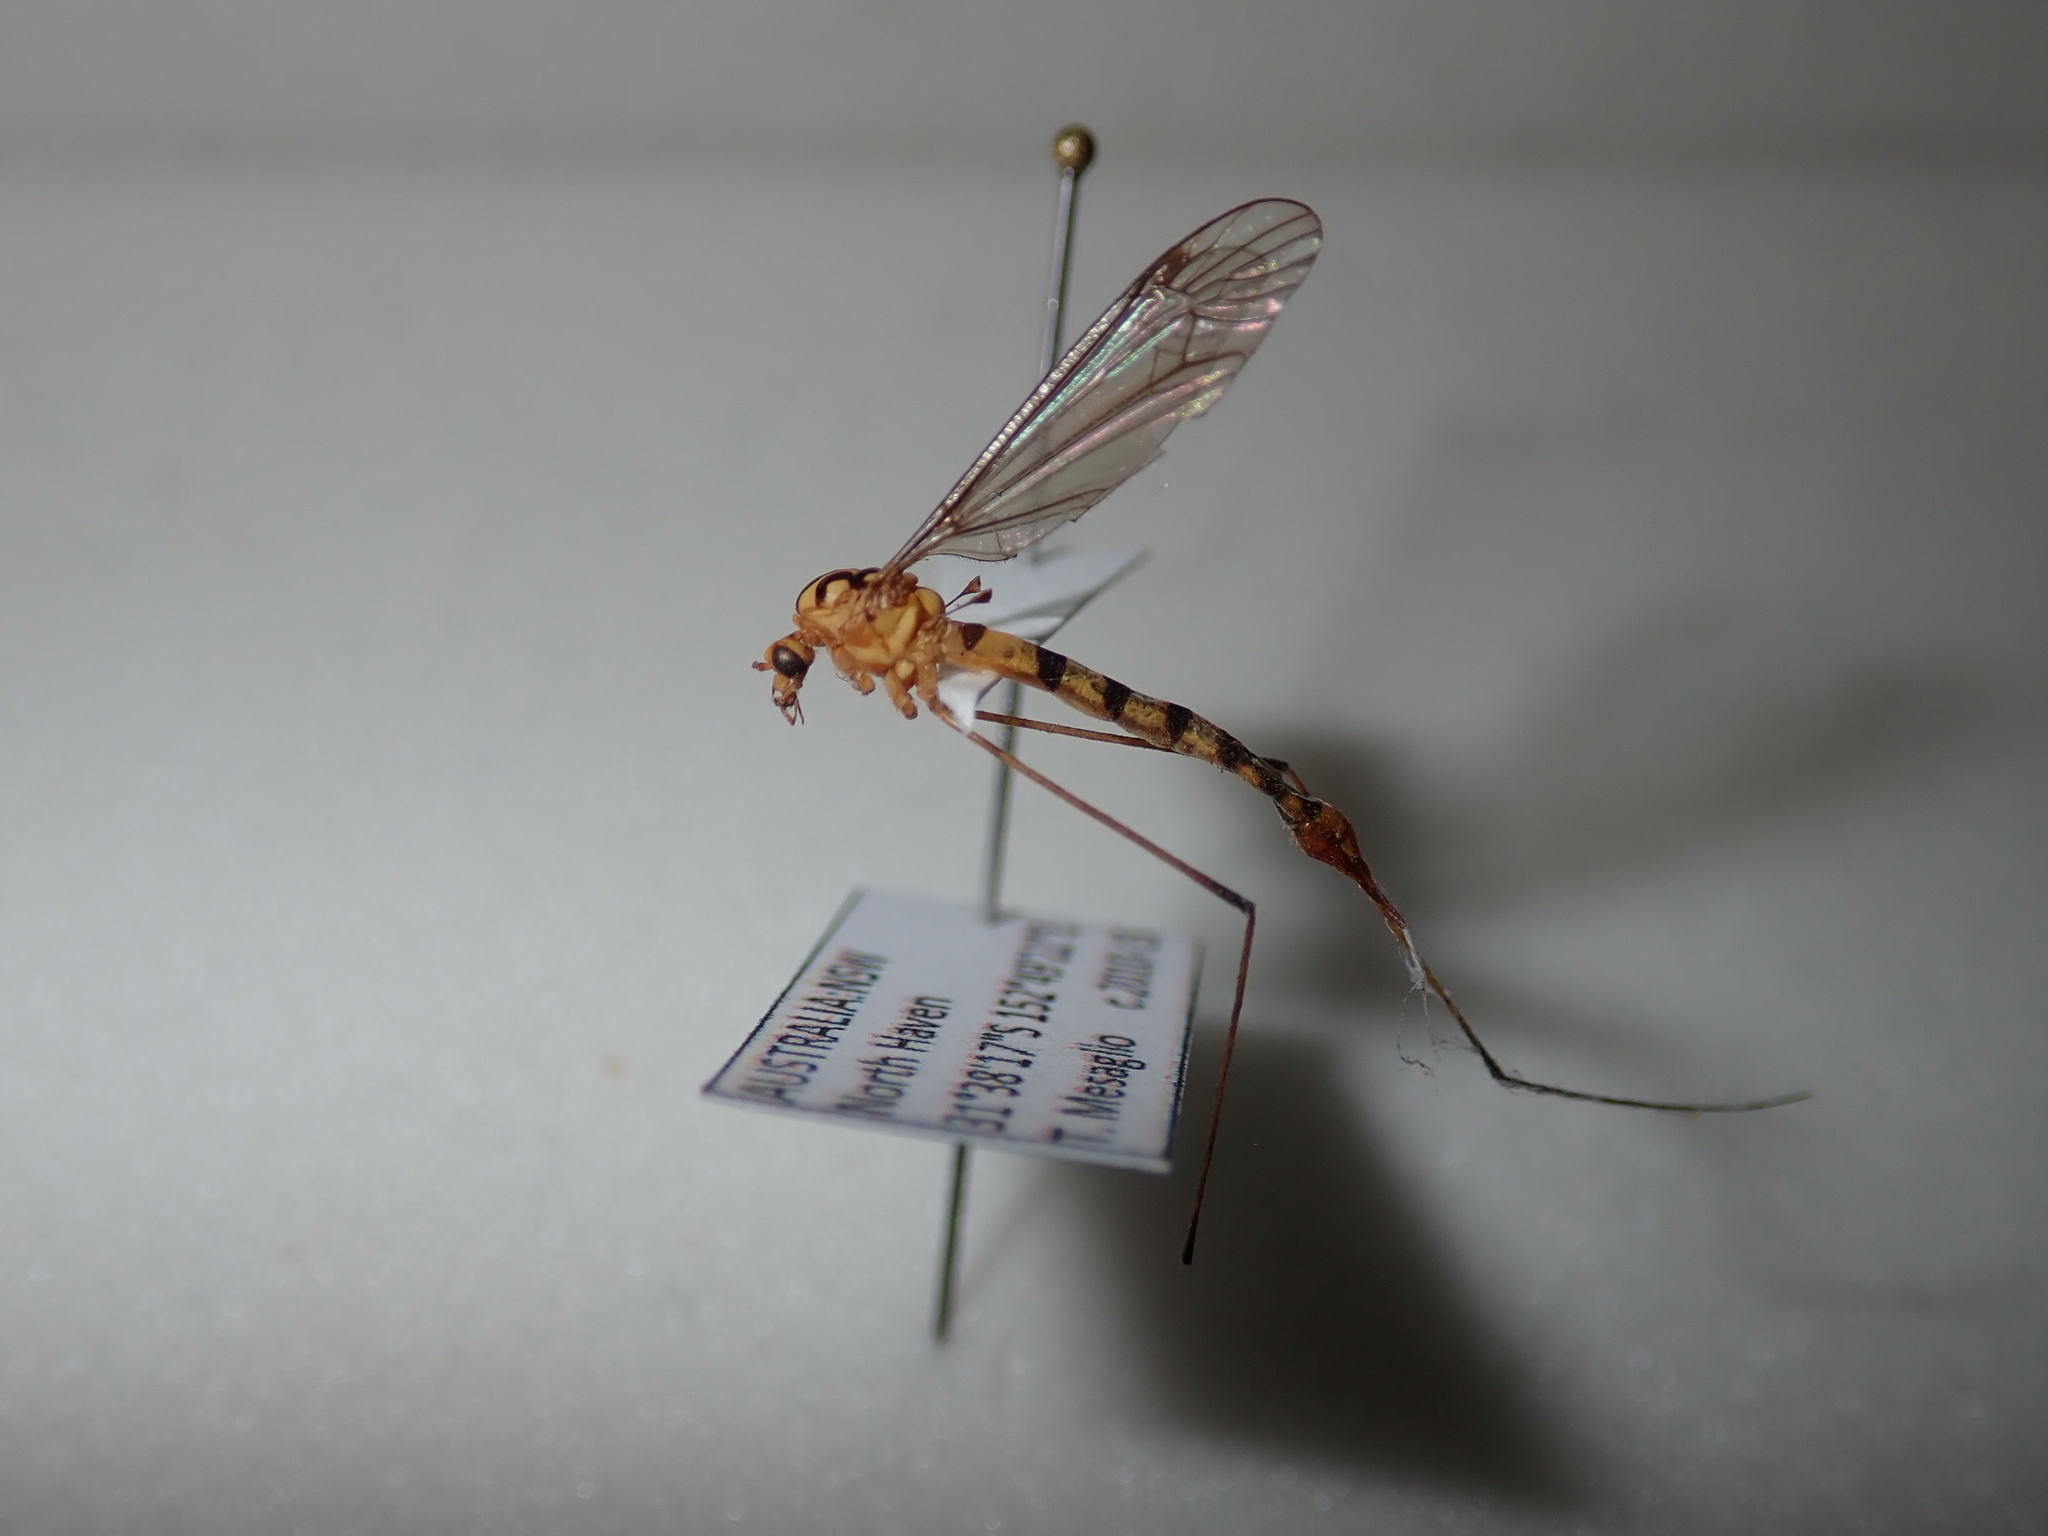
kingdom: Animalia
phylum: Arthropoda
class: Insecta
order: Diptera
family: Tipulidae
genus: Nephrotoma
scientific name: Nephrotoma australasiae
